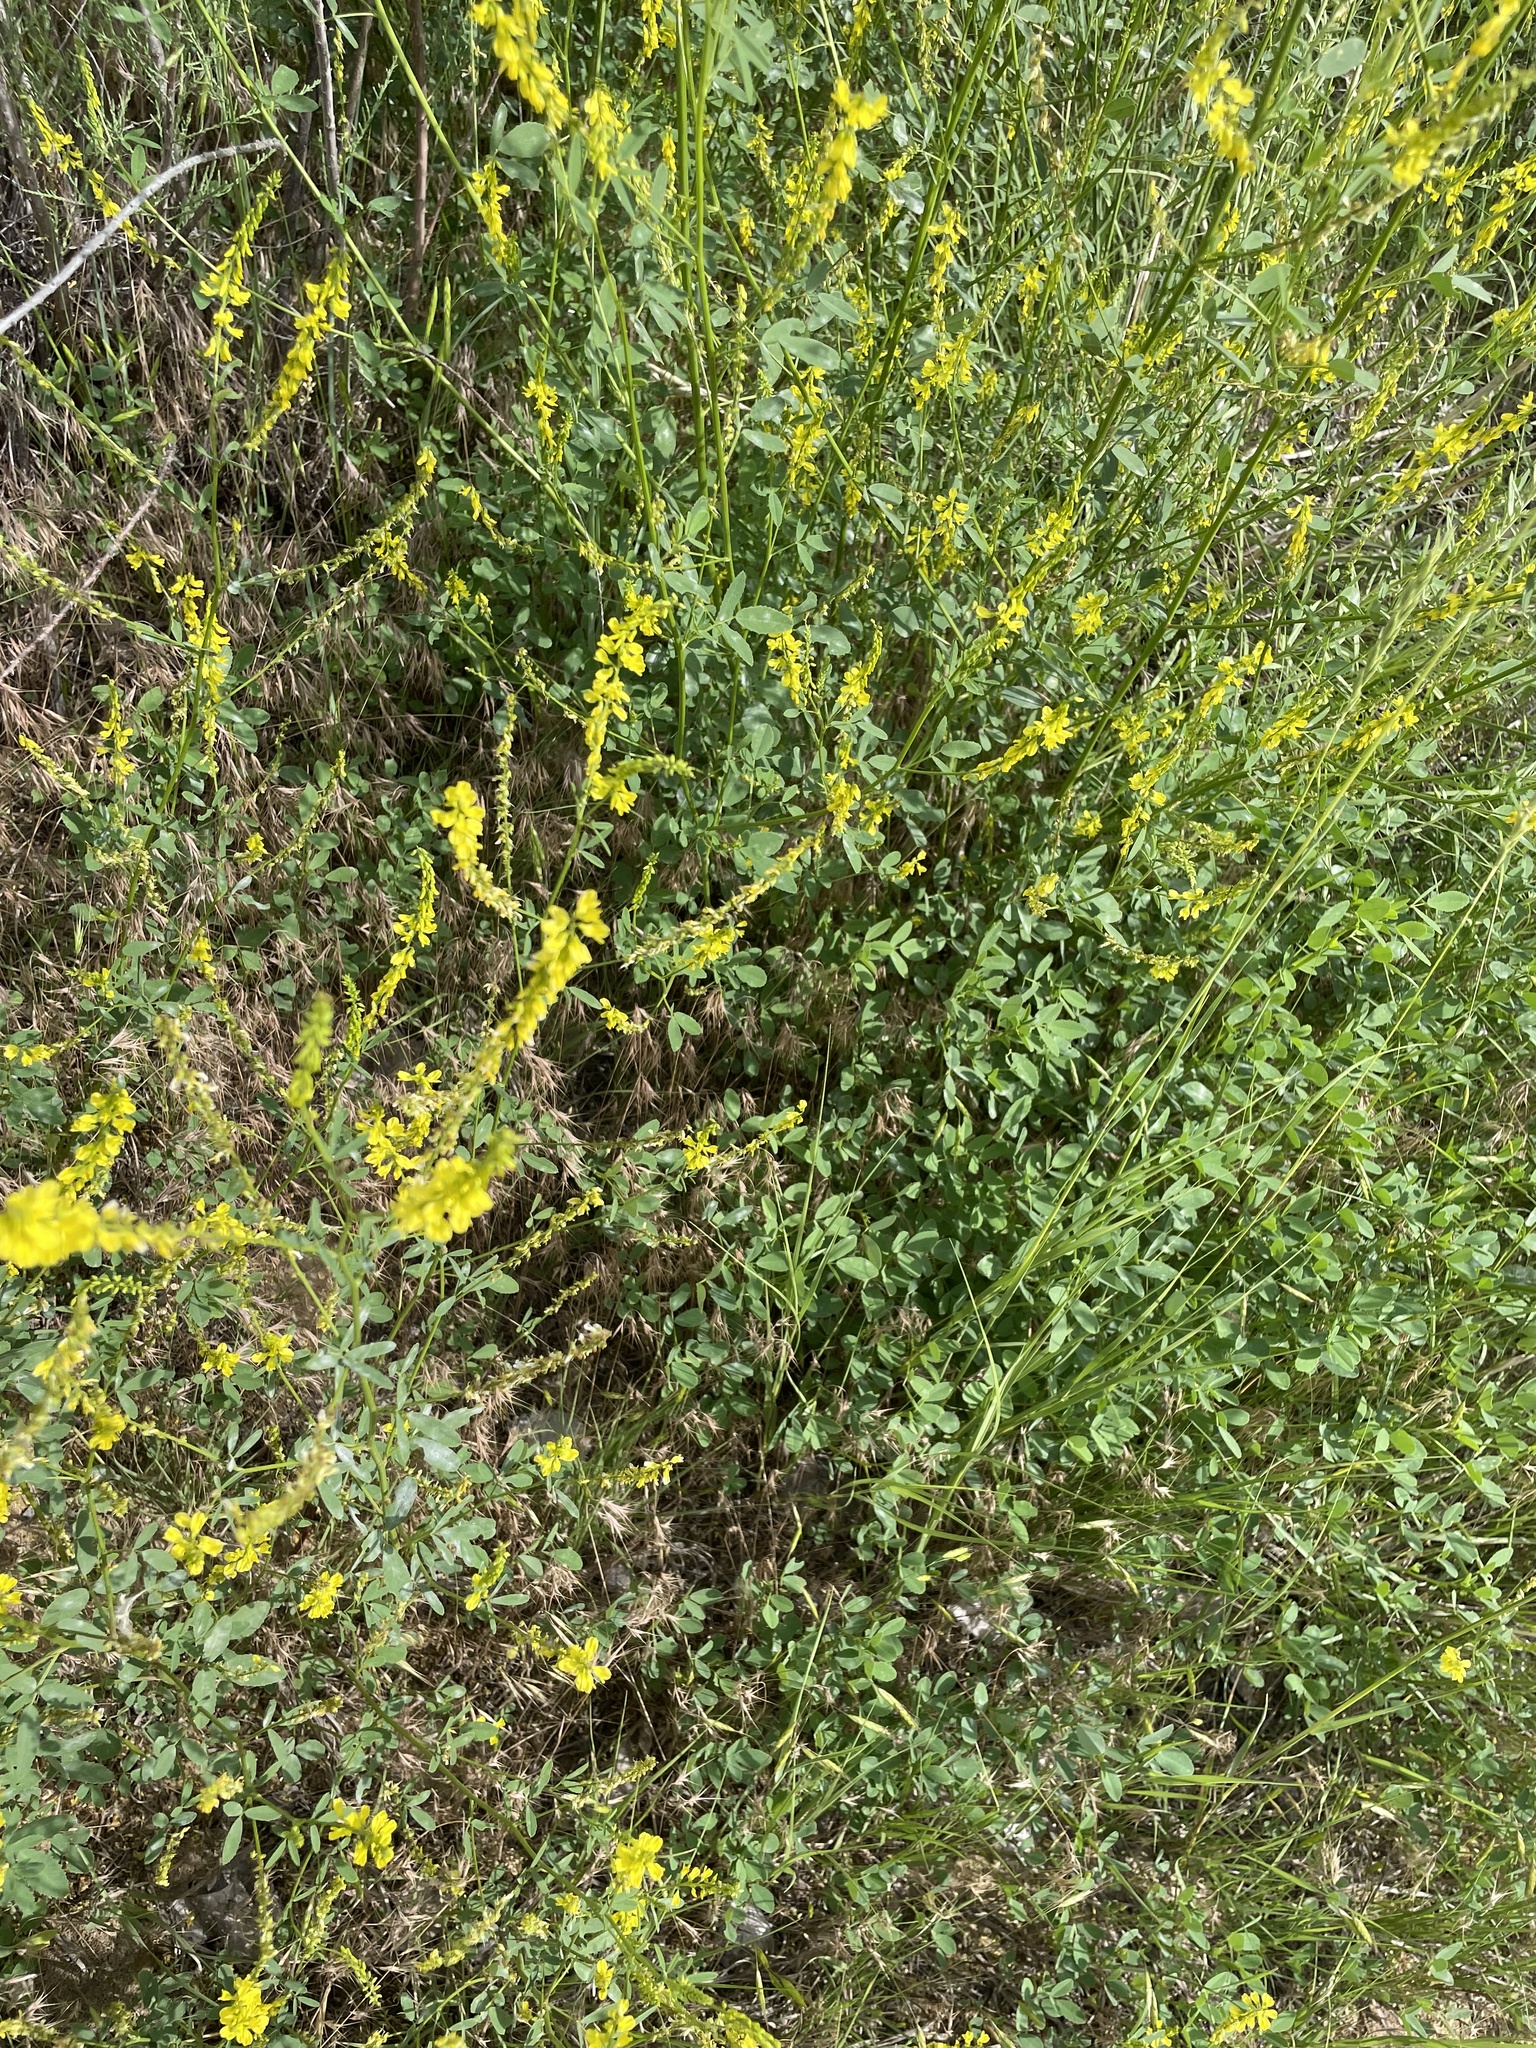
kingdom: Plantae
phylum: Tracheophyta
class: Magnoliopsida
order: Fabales
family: Fabaceae
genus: Melilotus
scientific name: Melilotus officinalis
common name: Sweetclover
